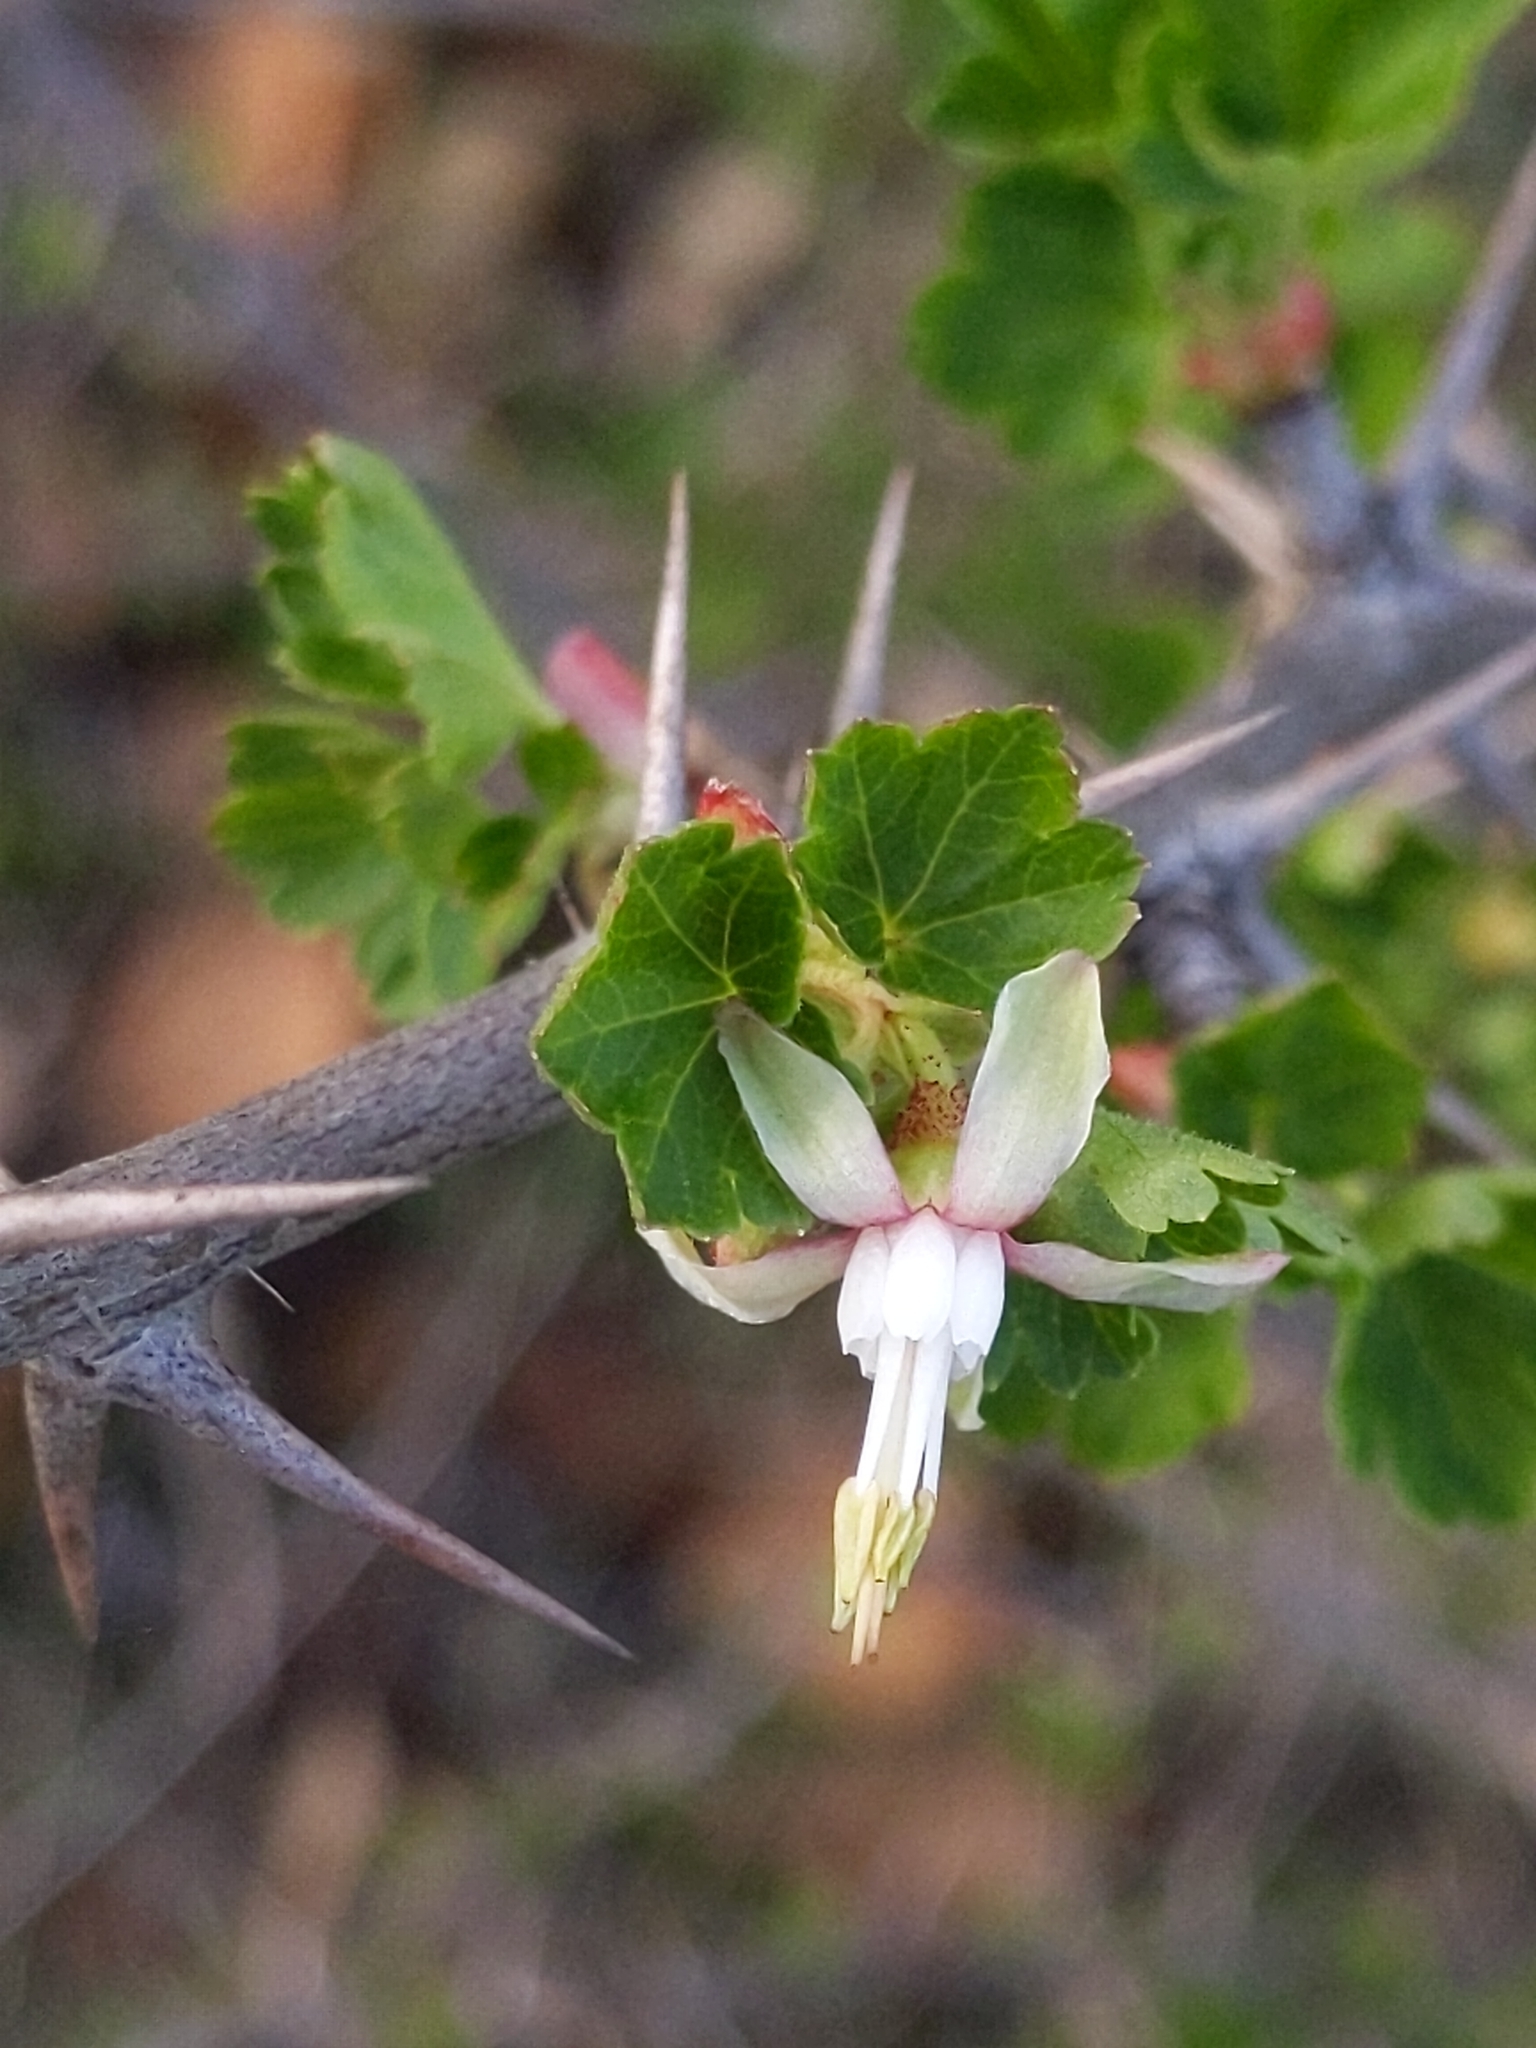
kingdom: Plantae
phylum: Tracheophyta
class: Magnoliopsida
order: Saxifragales
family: Grossulariaceae
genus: Ribes
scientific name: Ribes californicum
